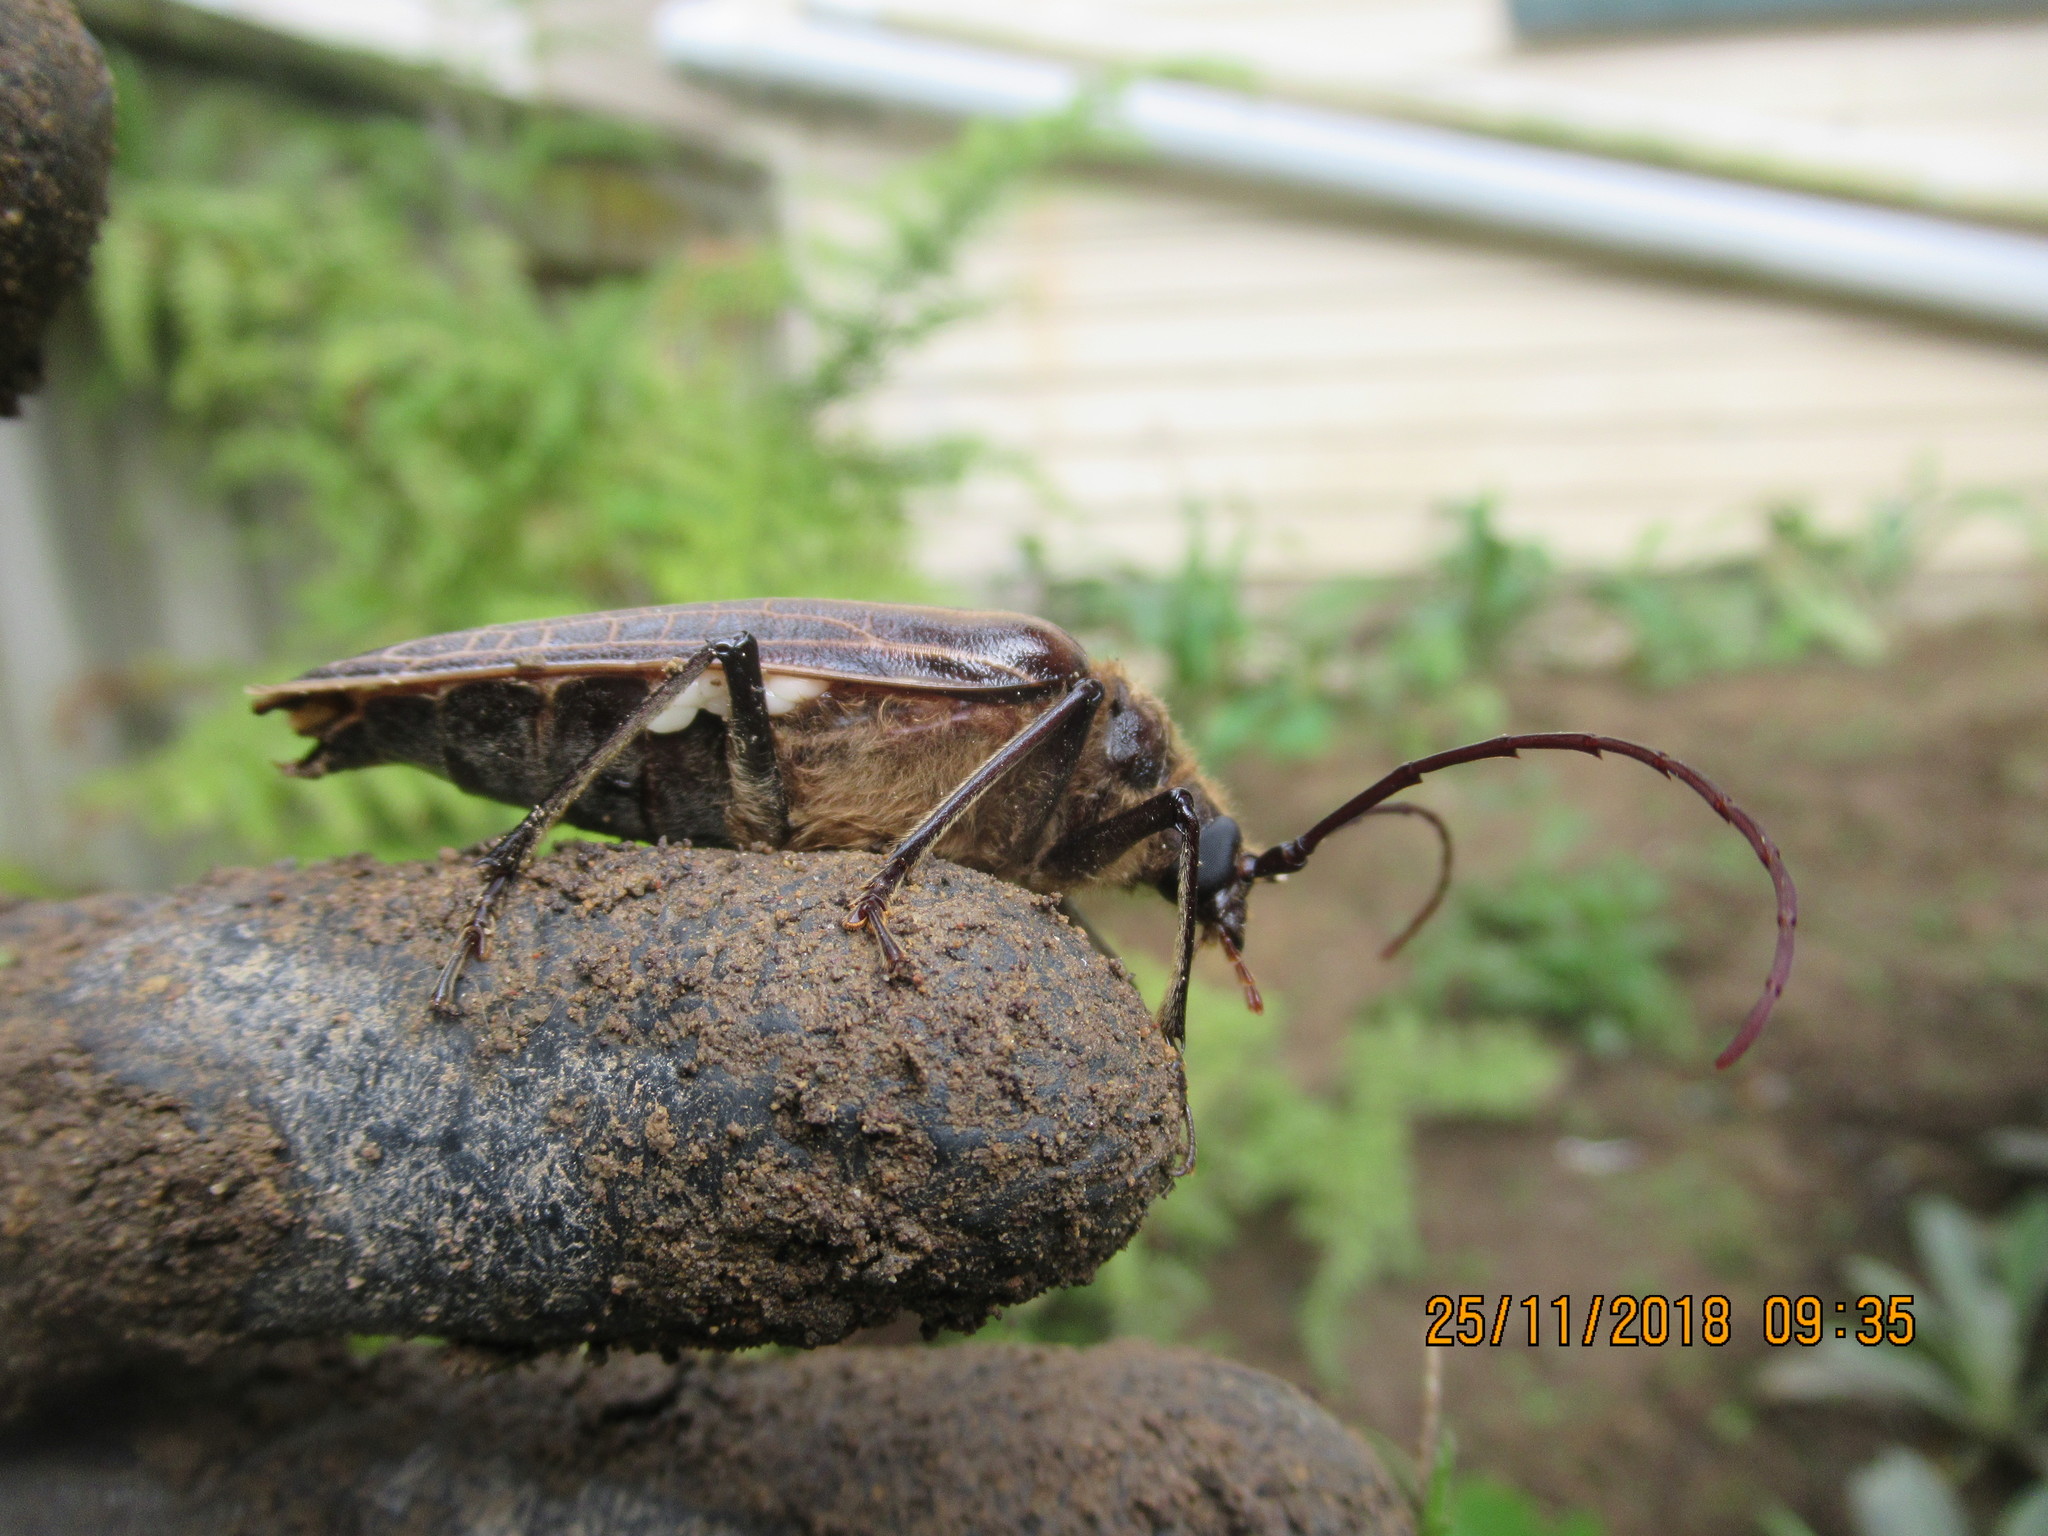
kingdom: Animalia
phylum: Arthropoda
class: Insecta
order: Coleoptera
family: Cerambycidae
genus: Prionoplus
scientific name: Prionoplus reticularis
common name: Huhu beetle
